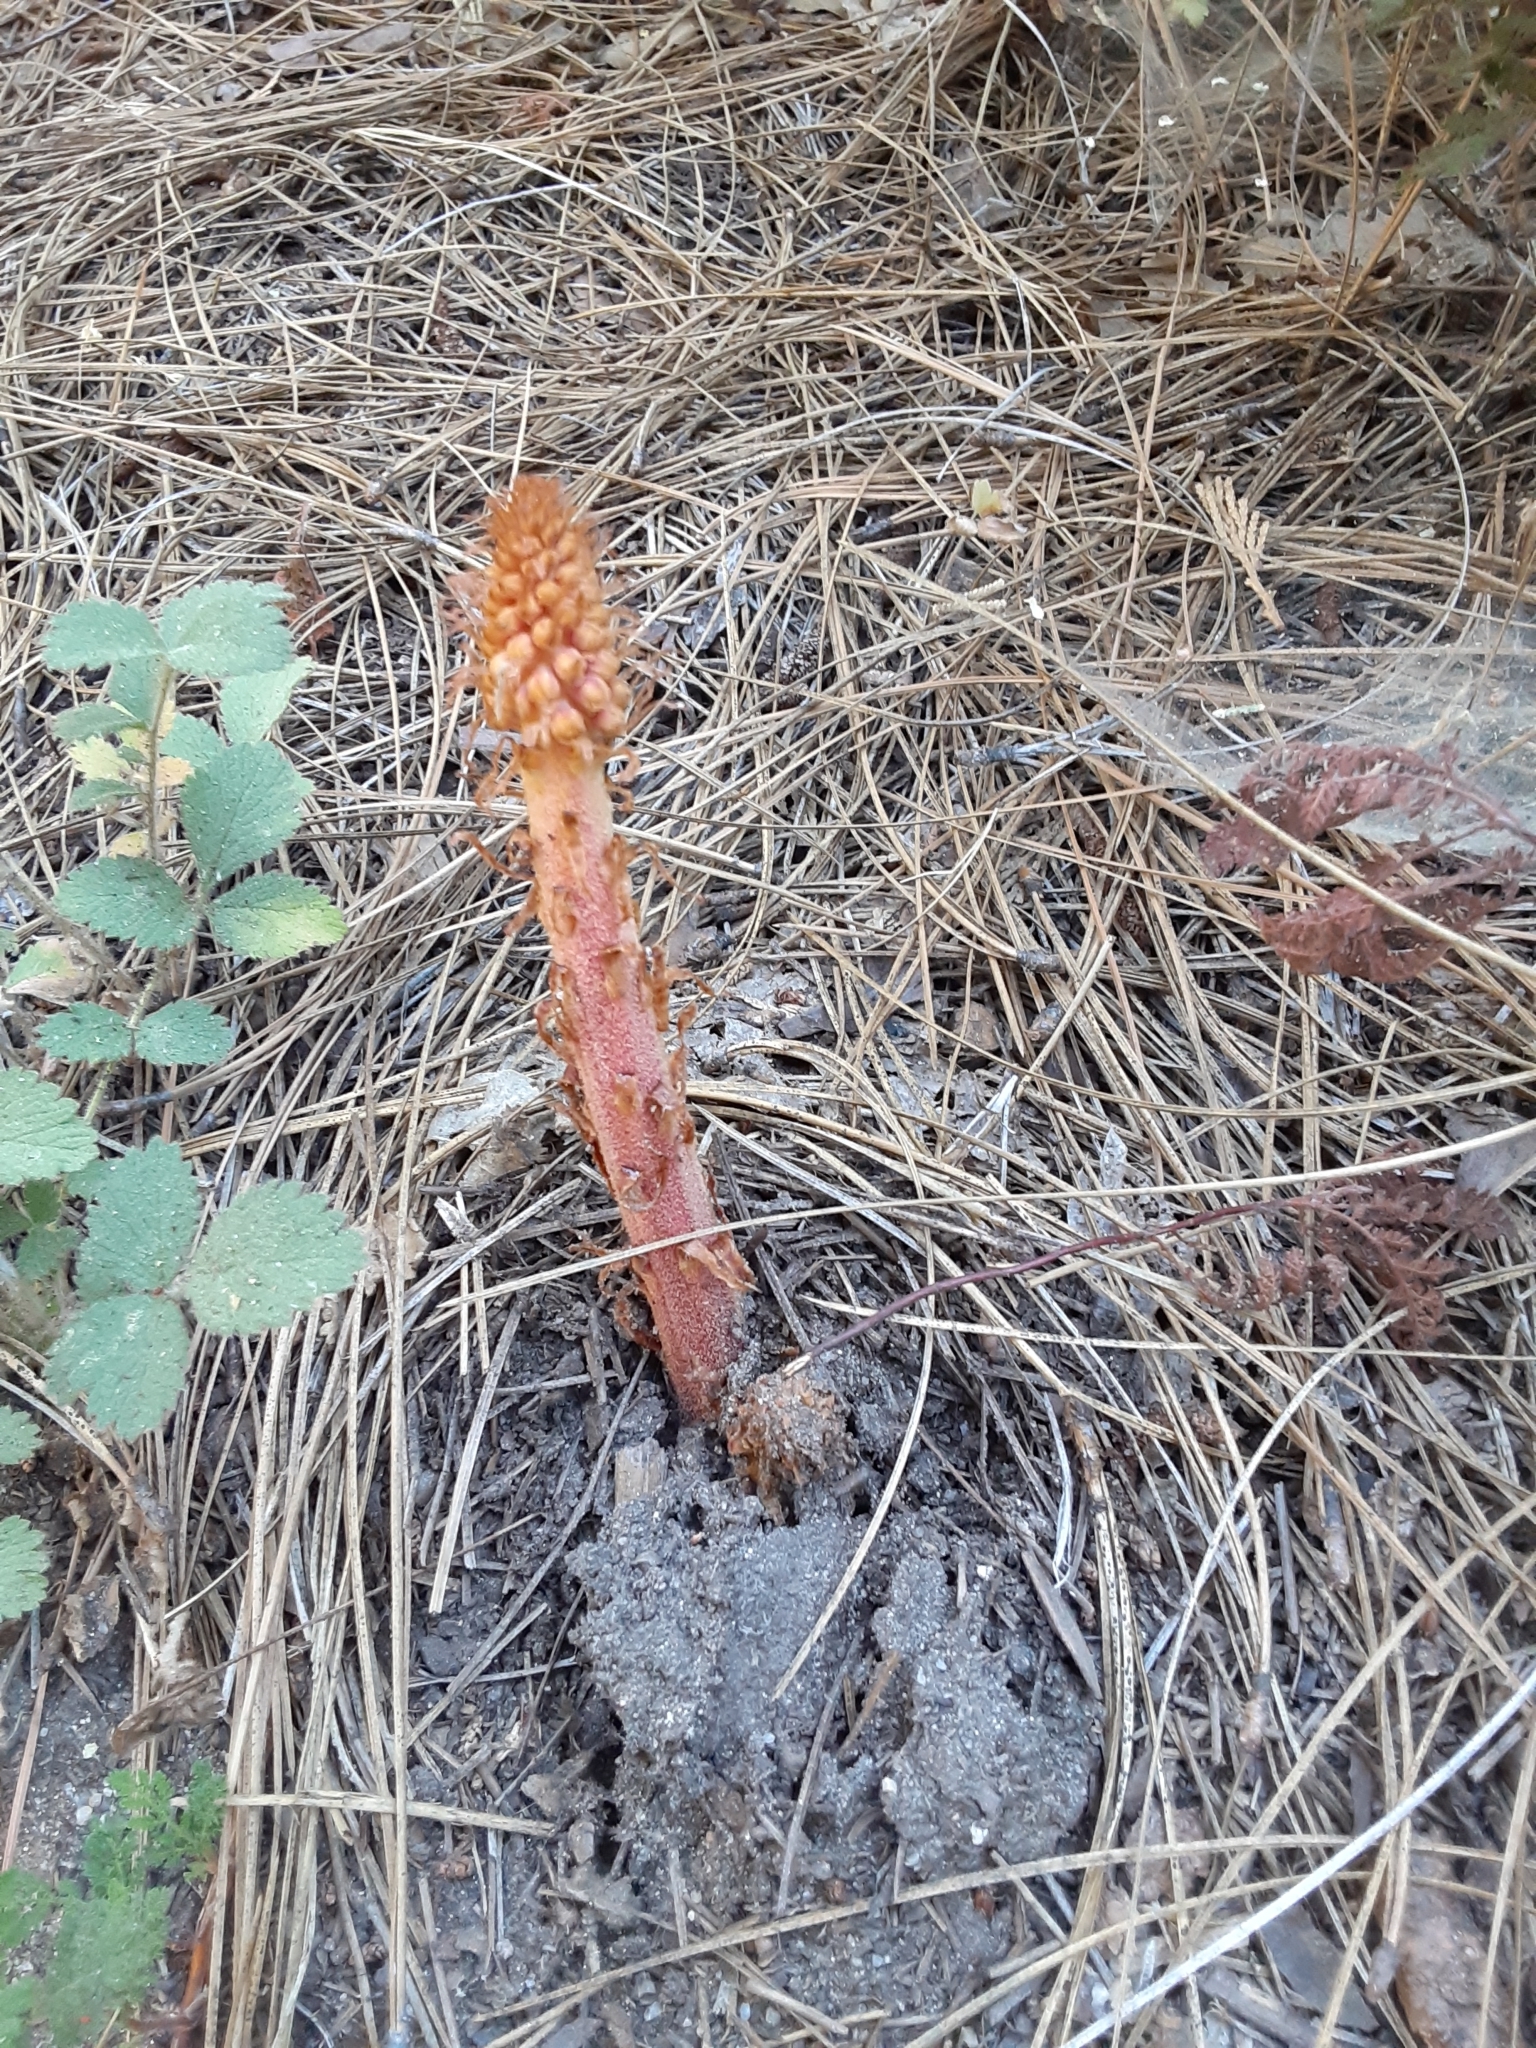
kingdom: Plantae
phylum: Tracheophyta
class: Magnoliopsida
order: Ericales
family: Ericaceae
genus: Pterospora
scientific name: Pterospora andromedea
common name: Giant bird's-nest
